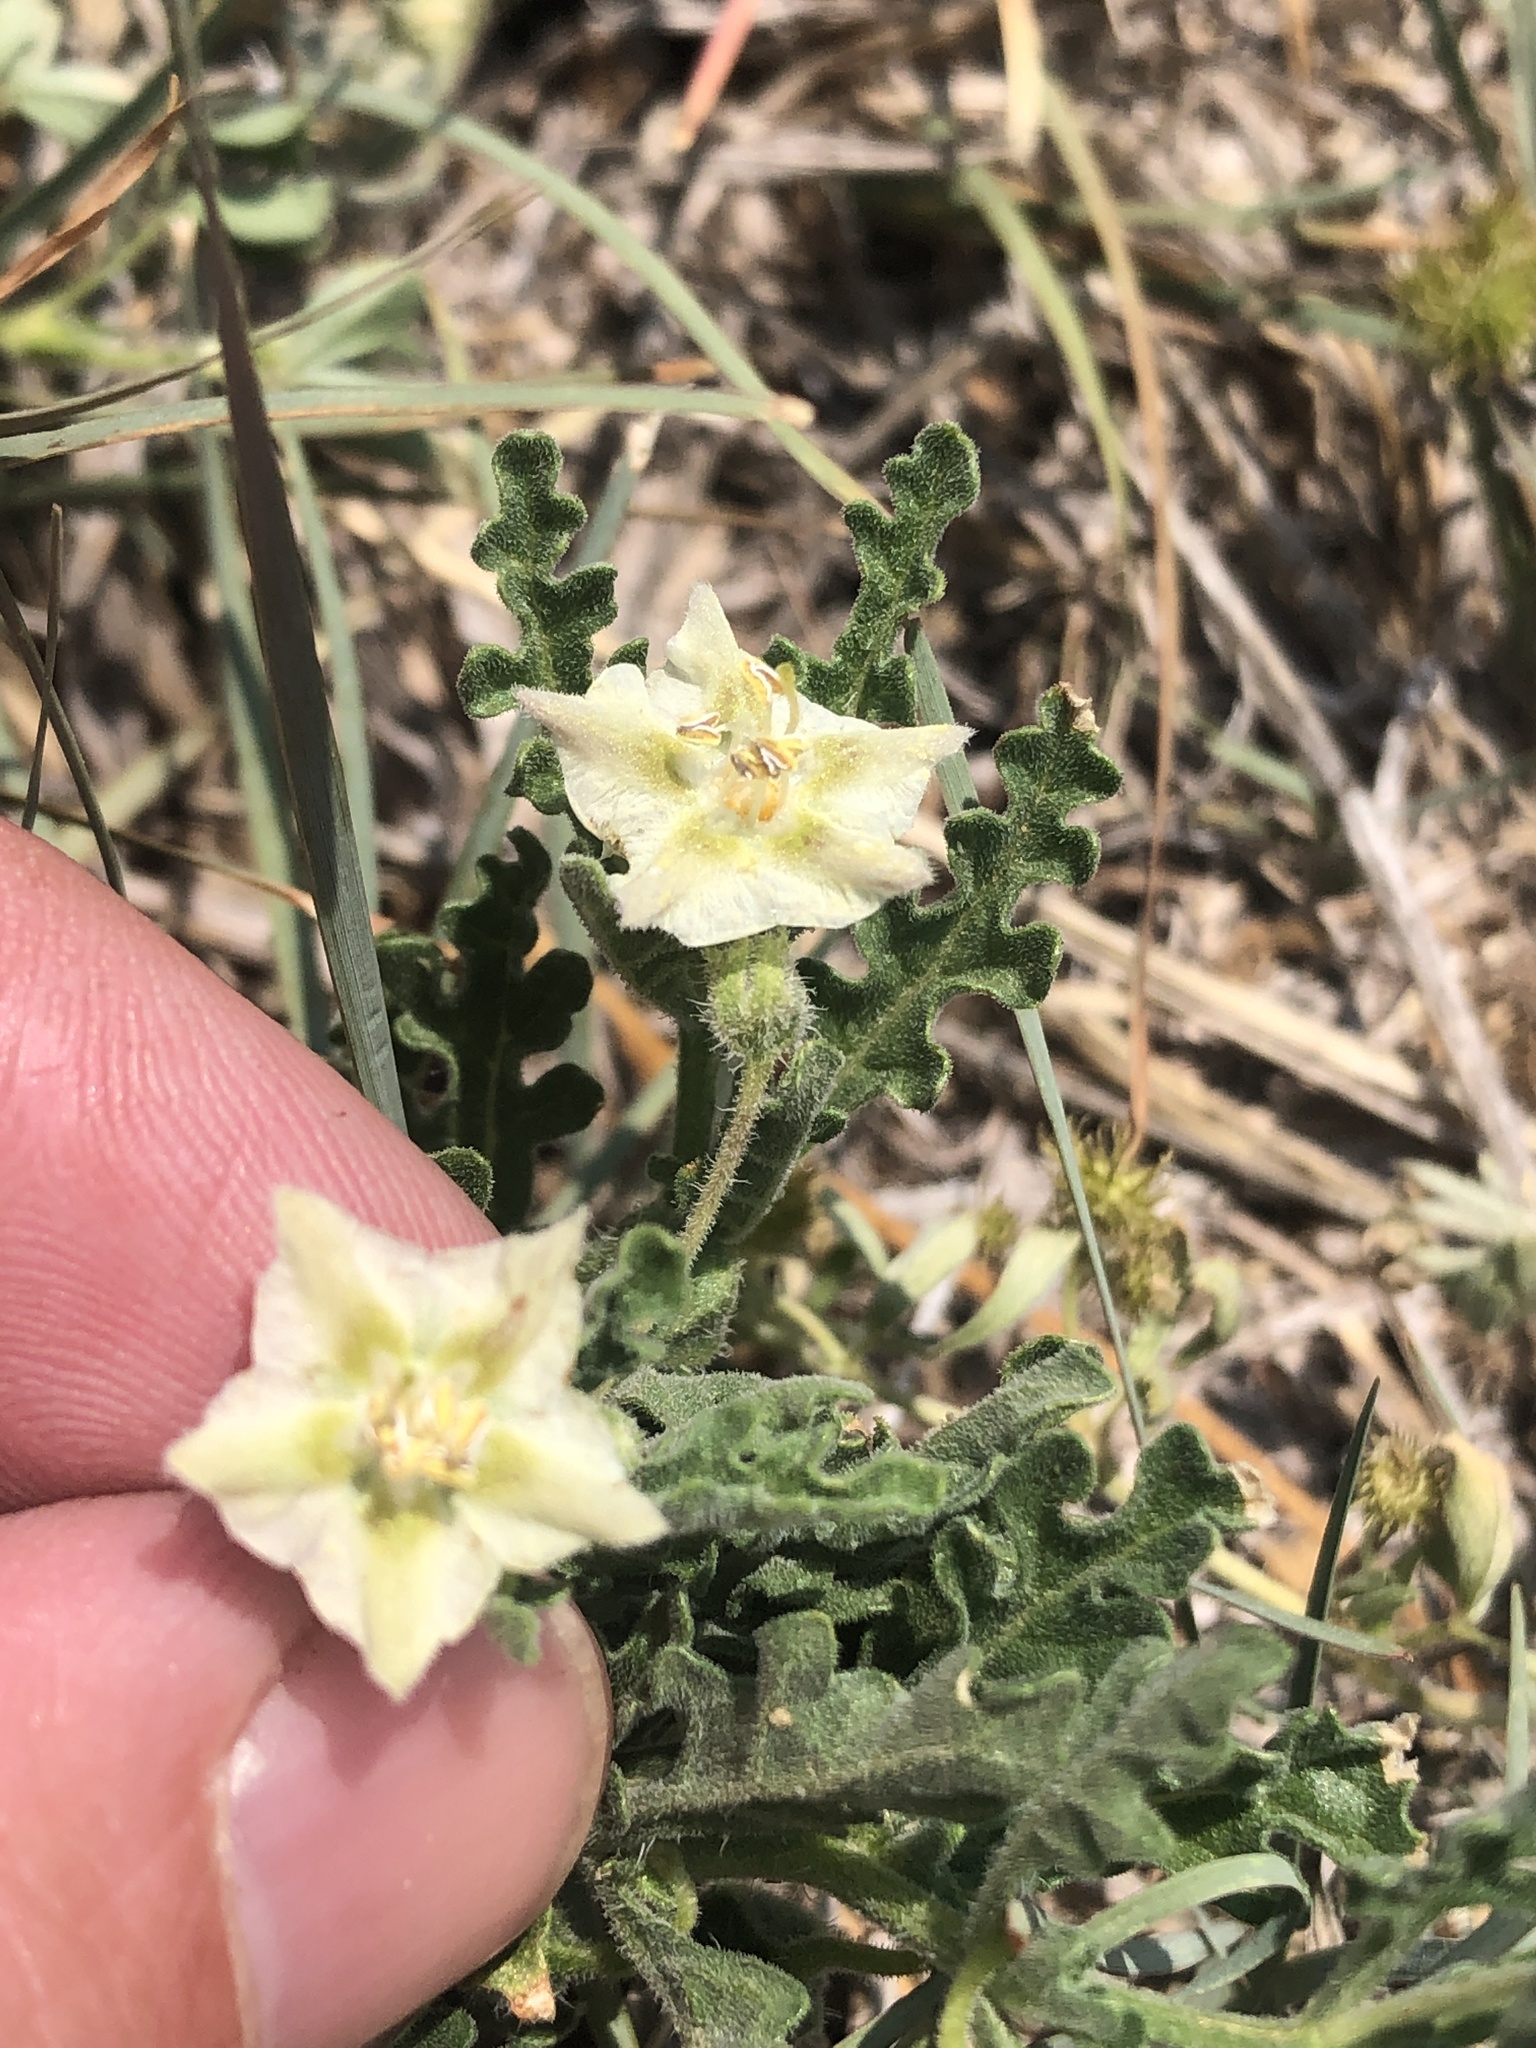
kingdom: Plantae
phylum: Tracheophyta
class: Magnoliopsida
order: Solanales
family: Solanaceae
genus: Chamaesaracha
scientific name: Chamaesaracha coniodes
